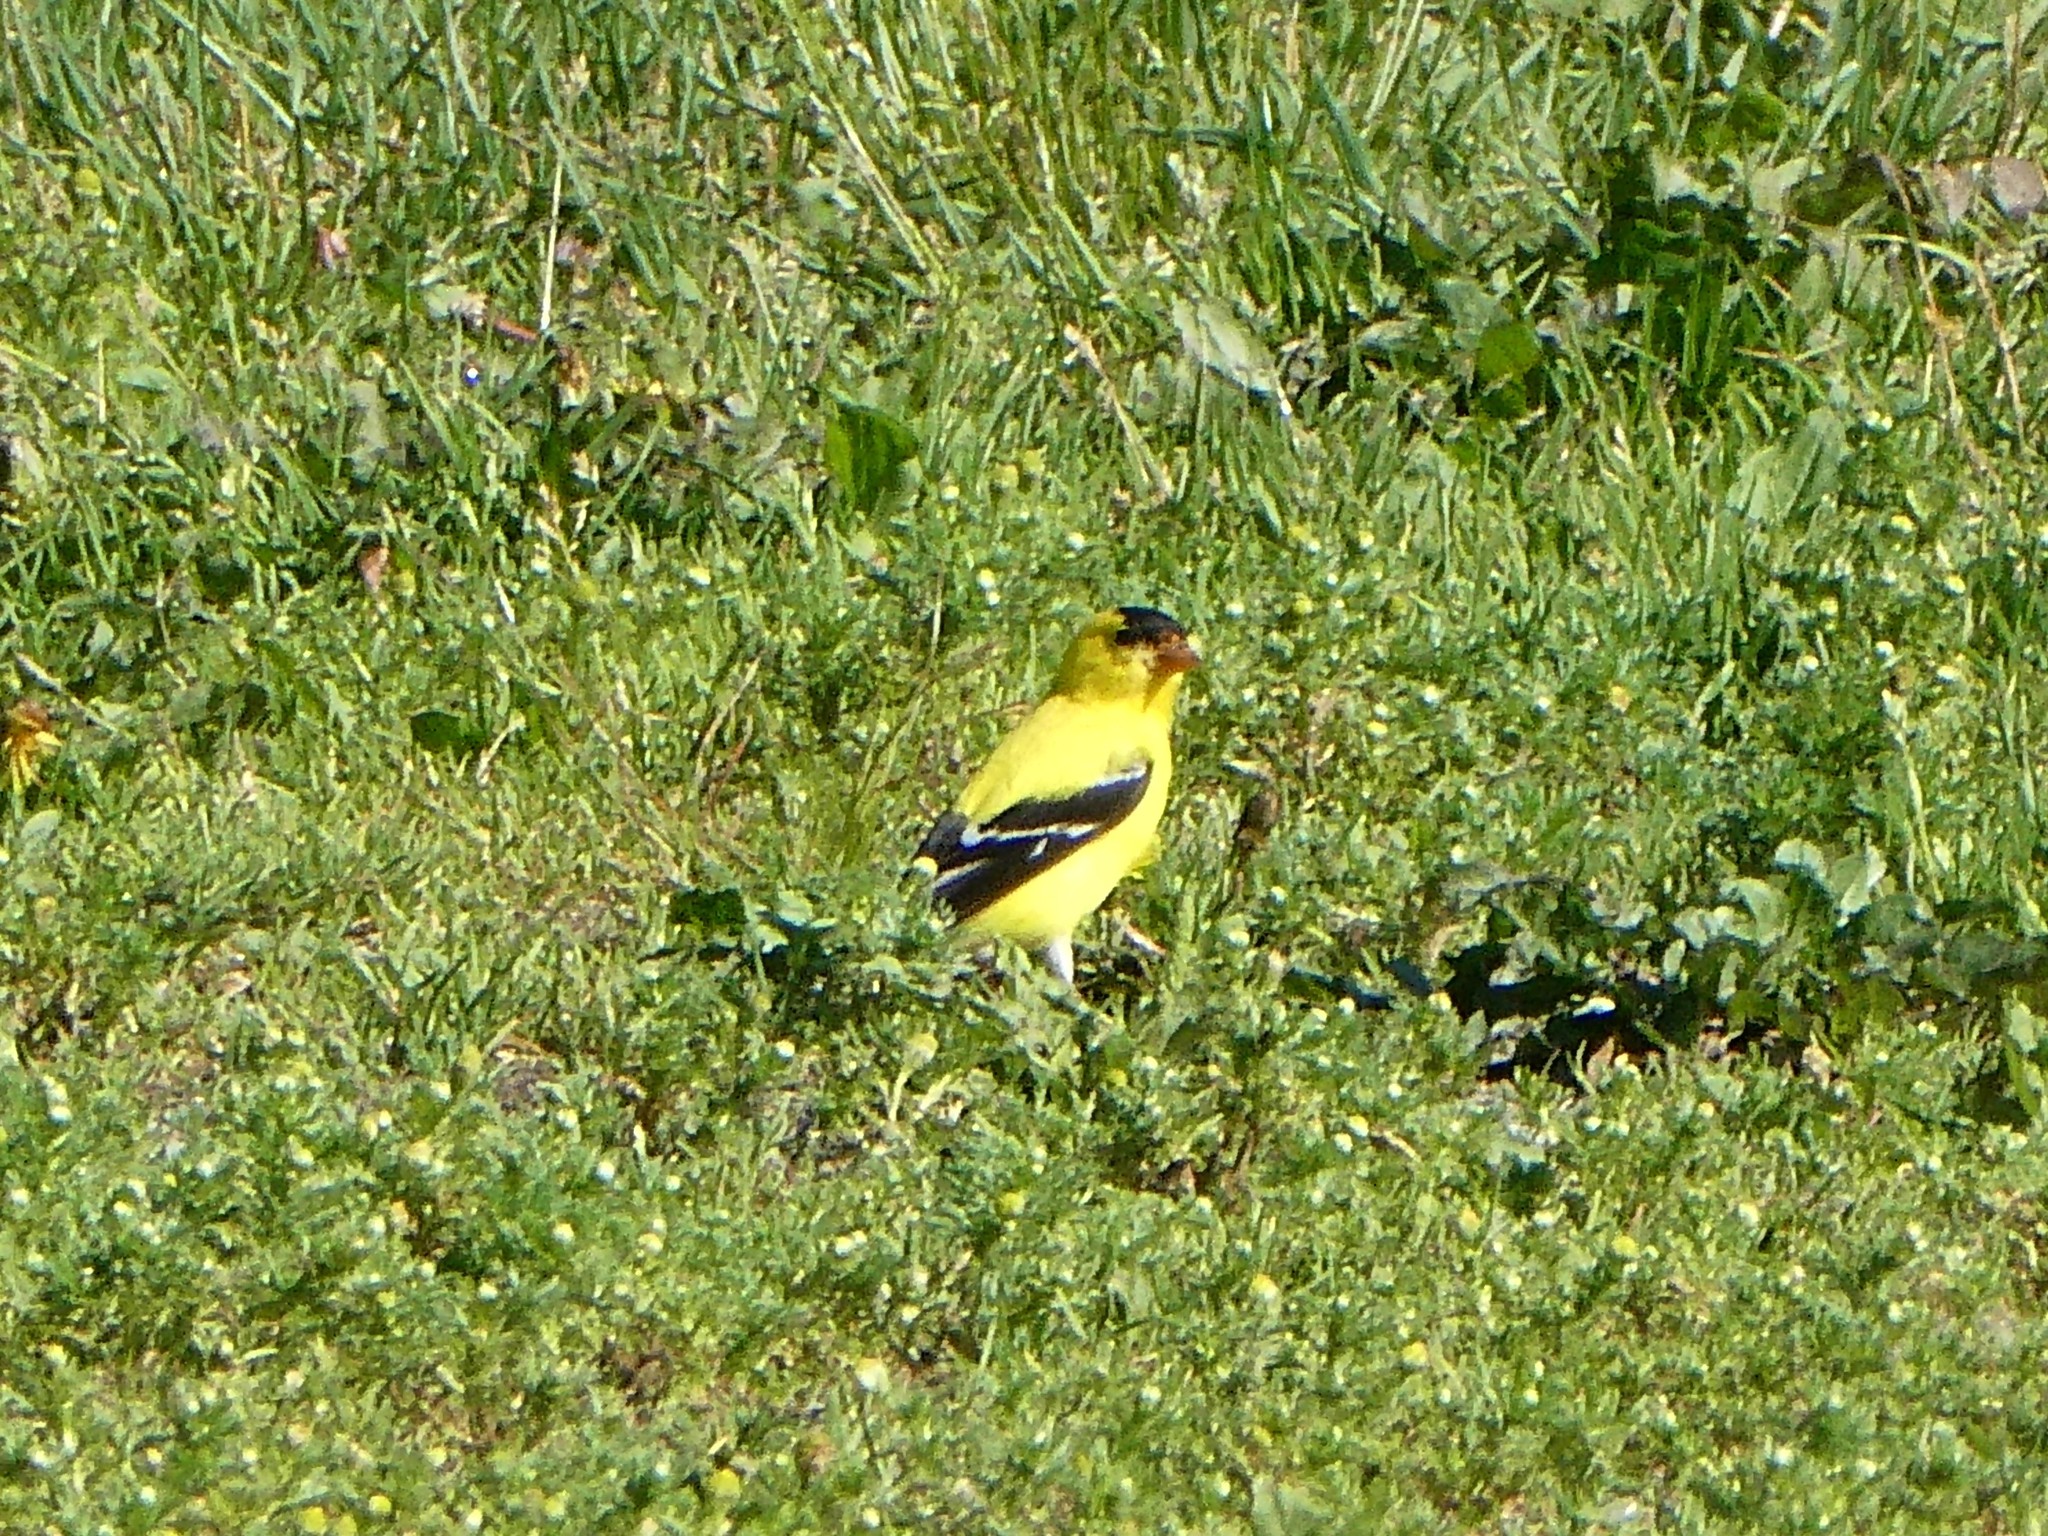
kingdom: Animalia
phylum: Chordata
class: Aves
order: Passeriformes
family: Fringillidae
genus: Spinus
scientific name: Spinus tristis
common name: American goldfinch
